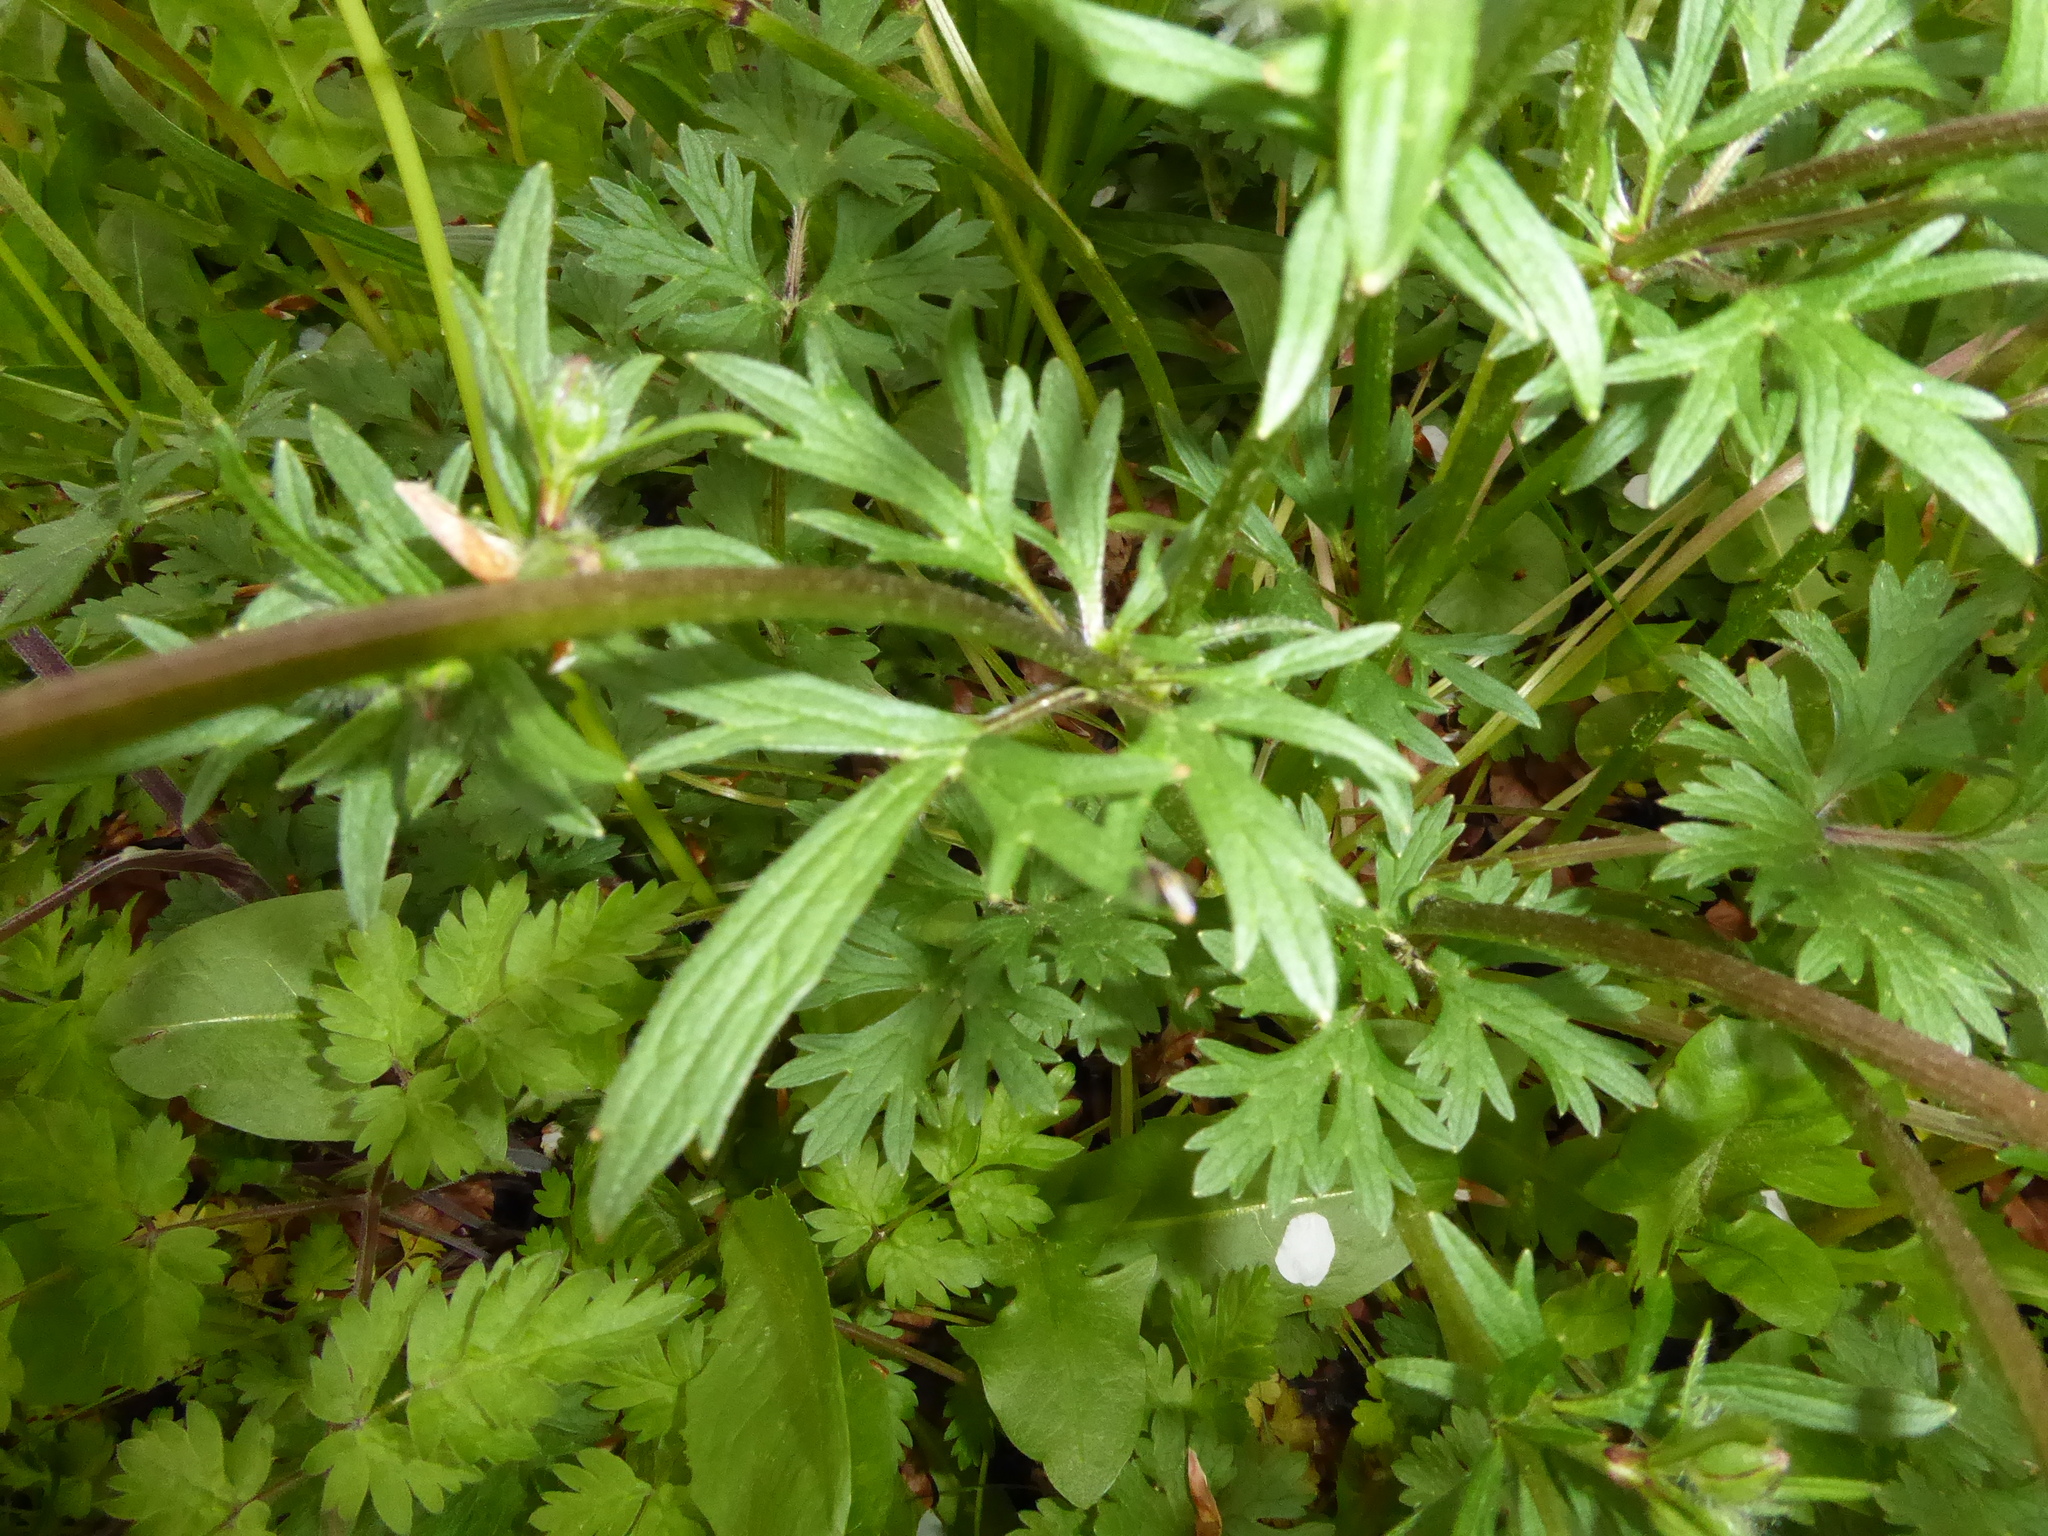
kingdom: Plantae
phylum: Tracheophyta
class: Magnoliopsida
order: Ranunculales
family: Ranunculaceae
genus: Ranunculus
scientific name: Ranunculus bulbosus
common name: Bulbous buttercup
